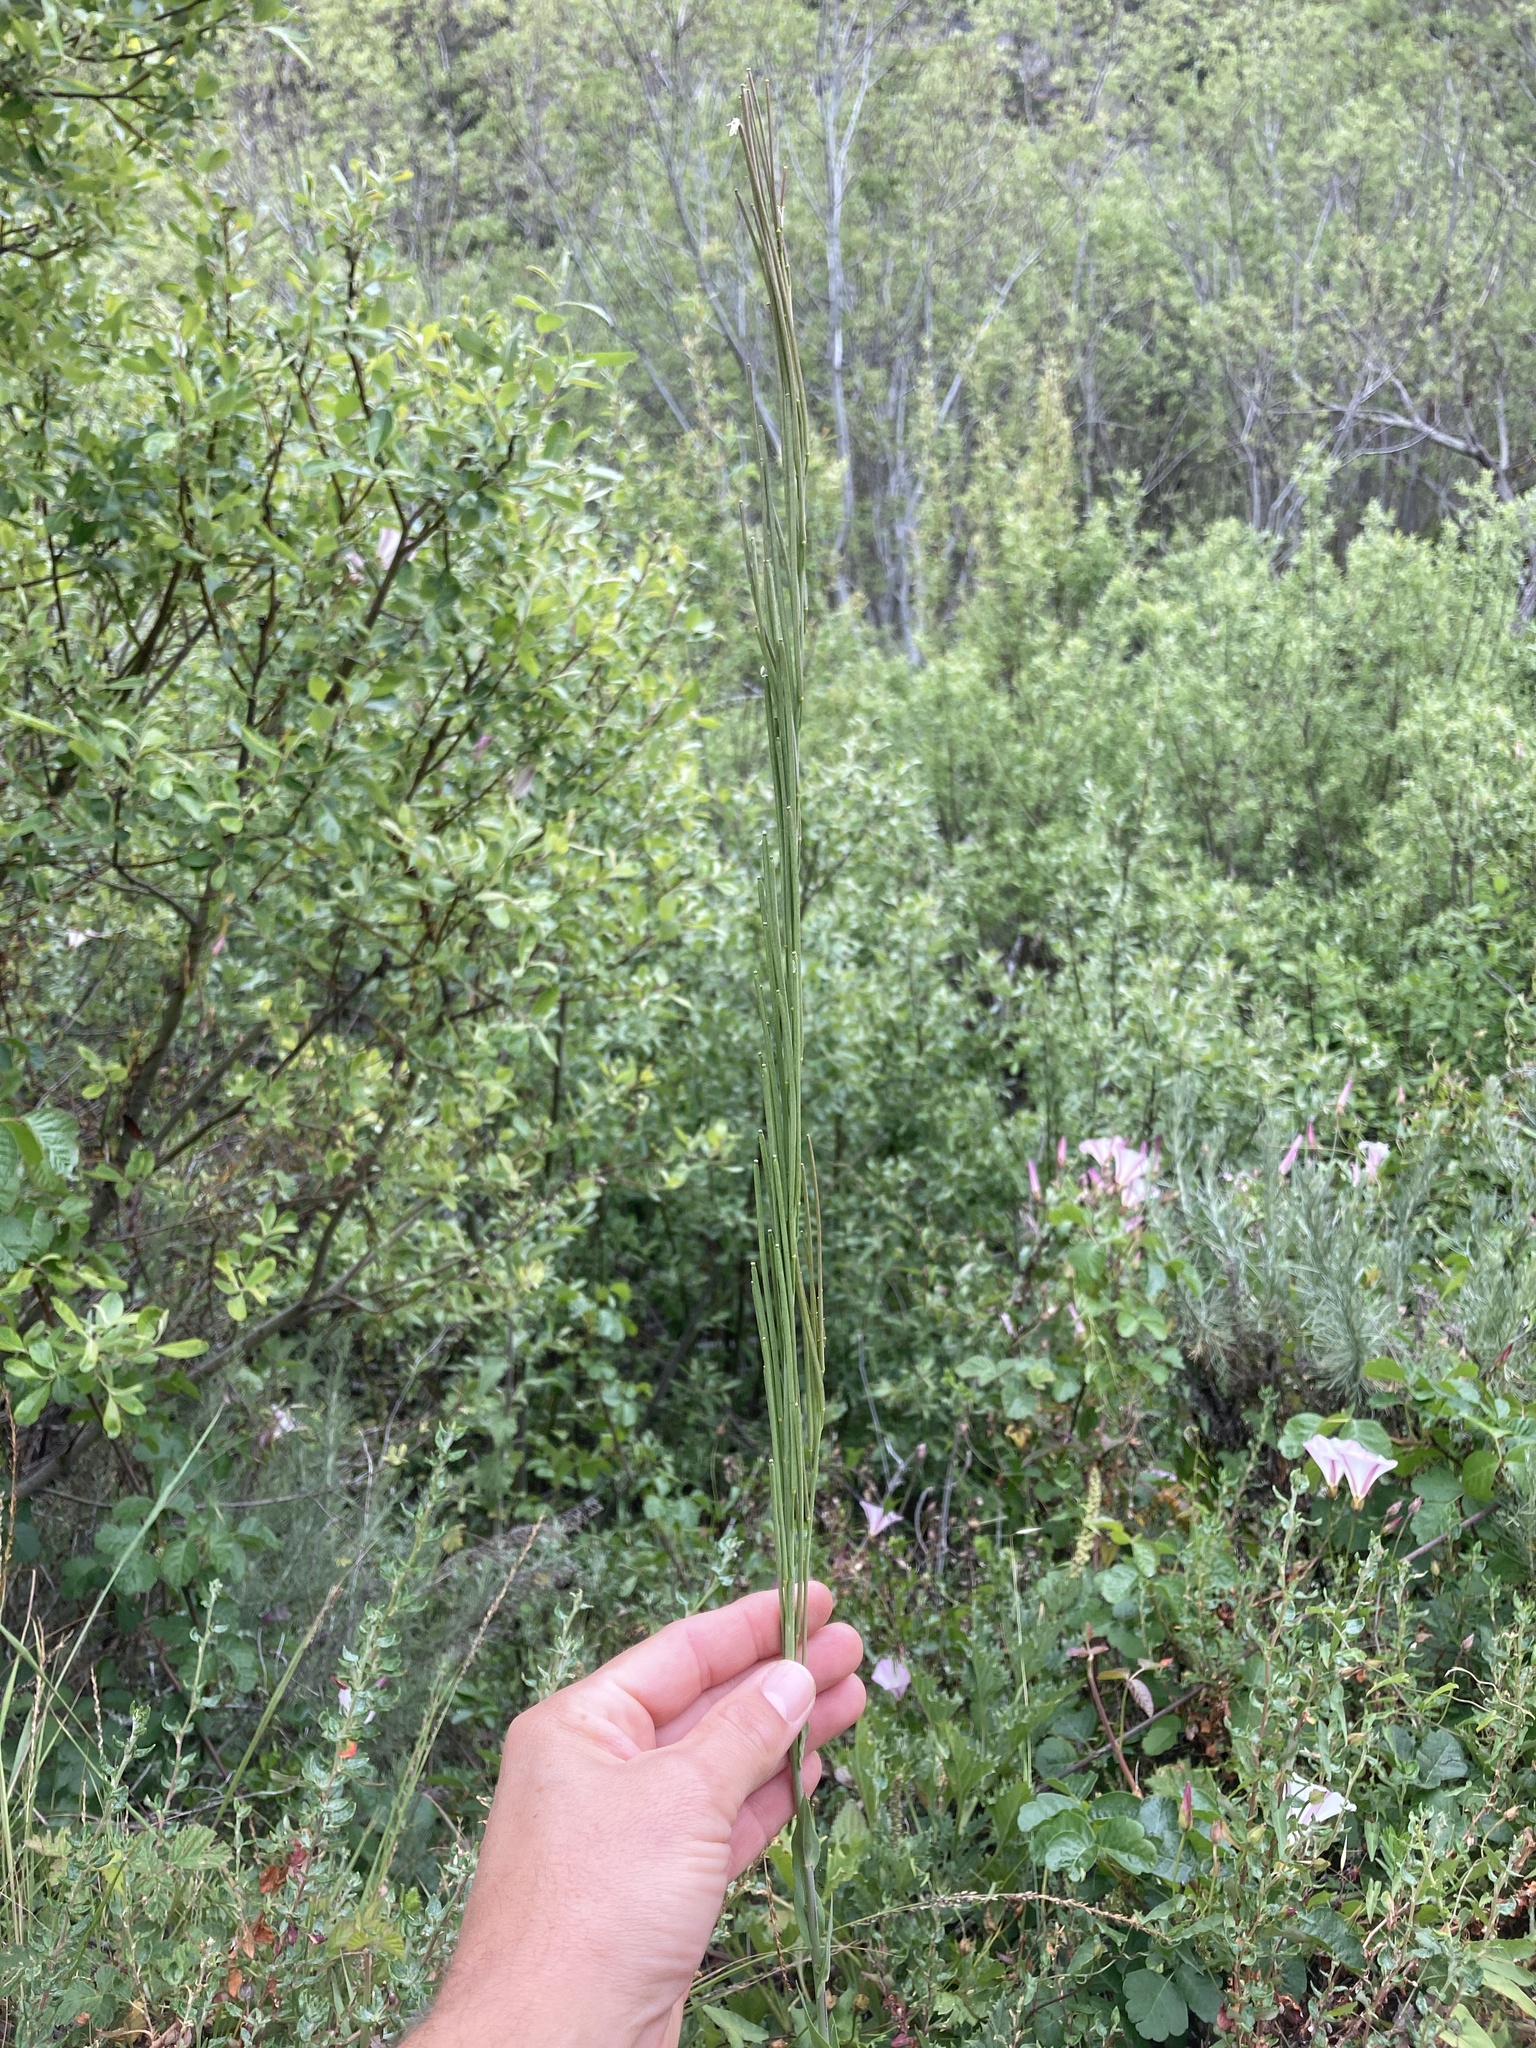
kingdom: Plantae
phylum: Tracheophyta
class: Magnoliopsida
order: Brassicales
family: Brassicaceae
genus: Turritis
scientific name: Turritis glabra
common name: Tower rockcress
